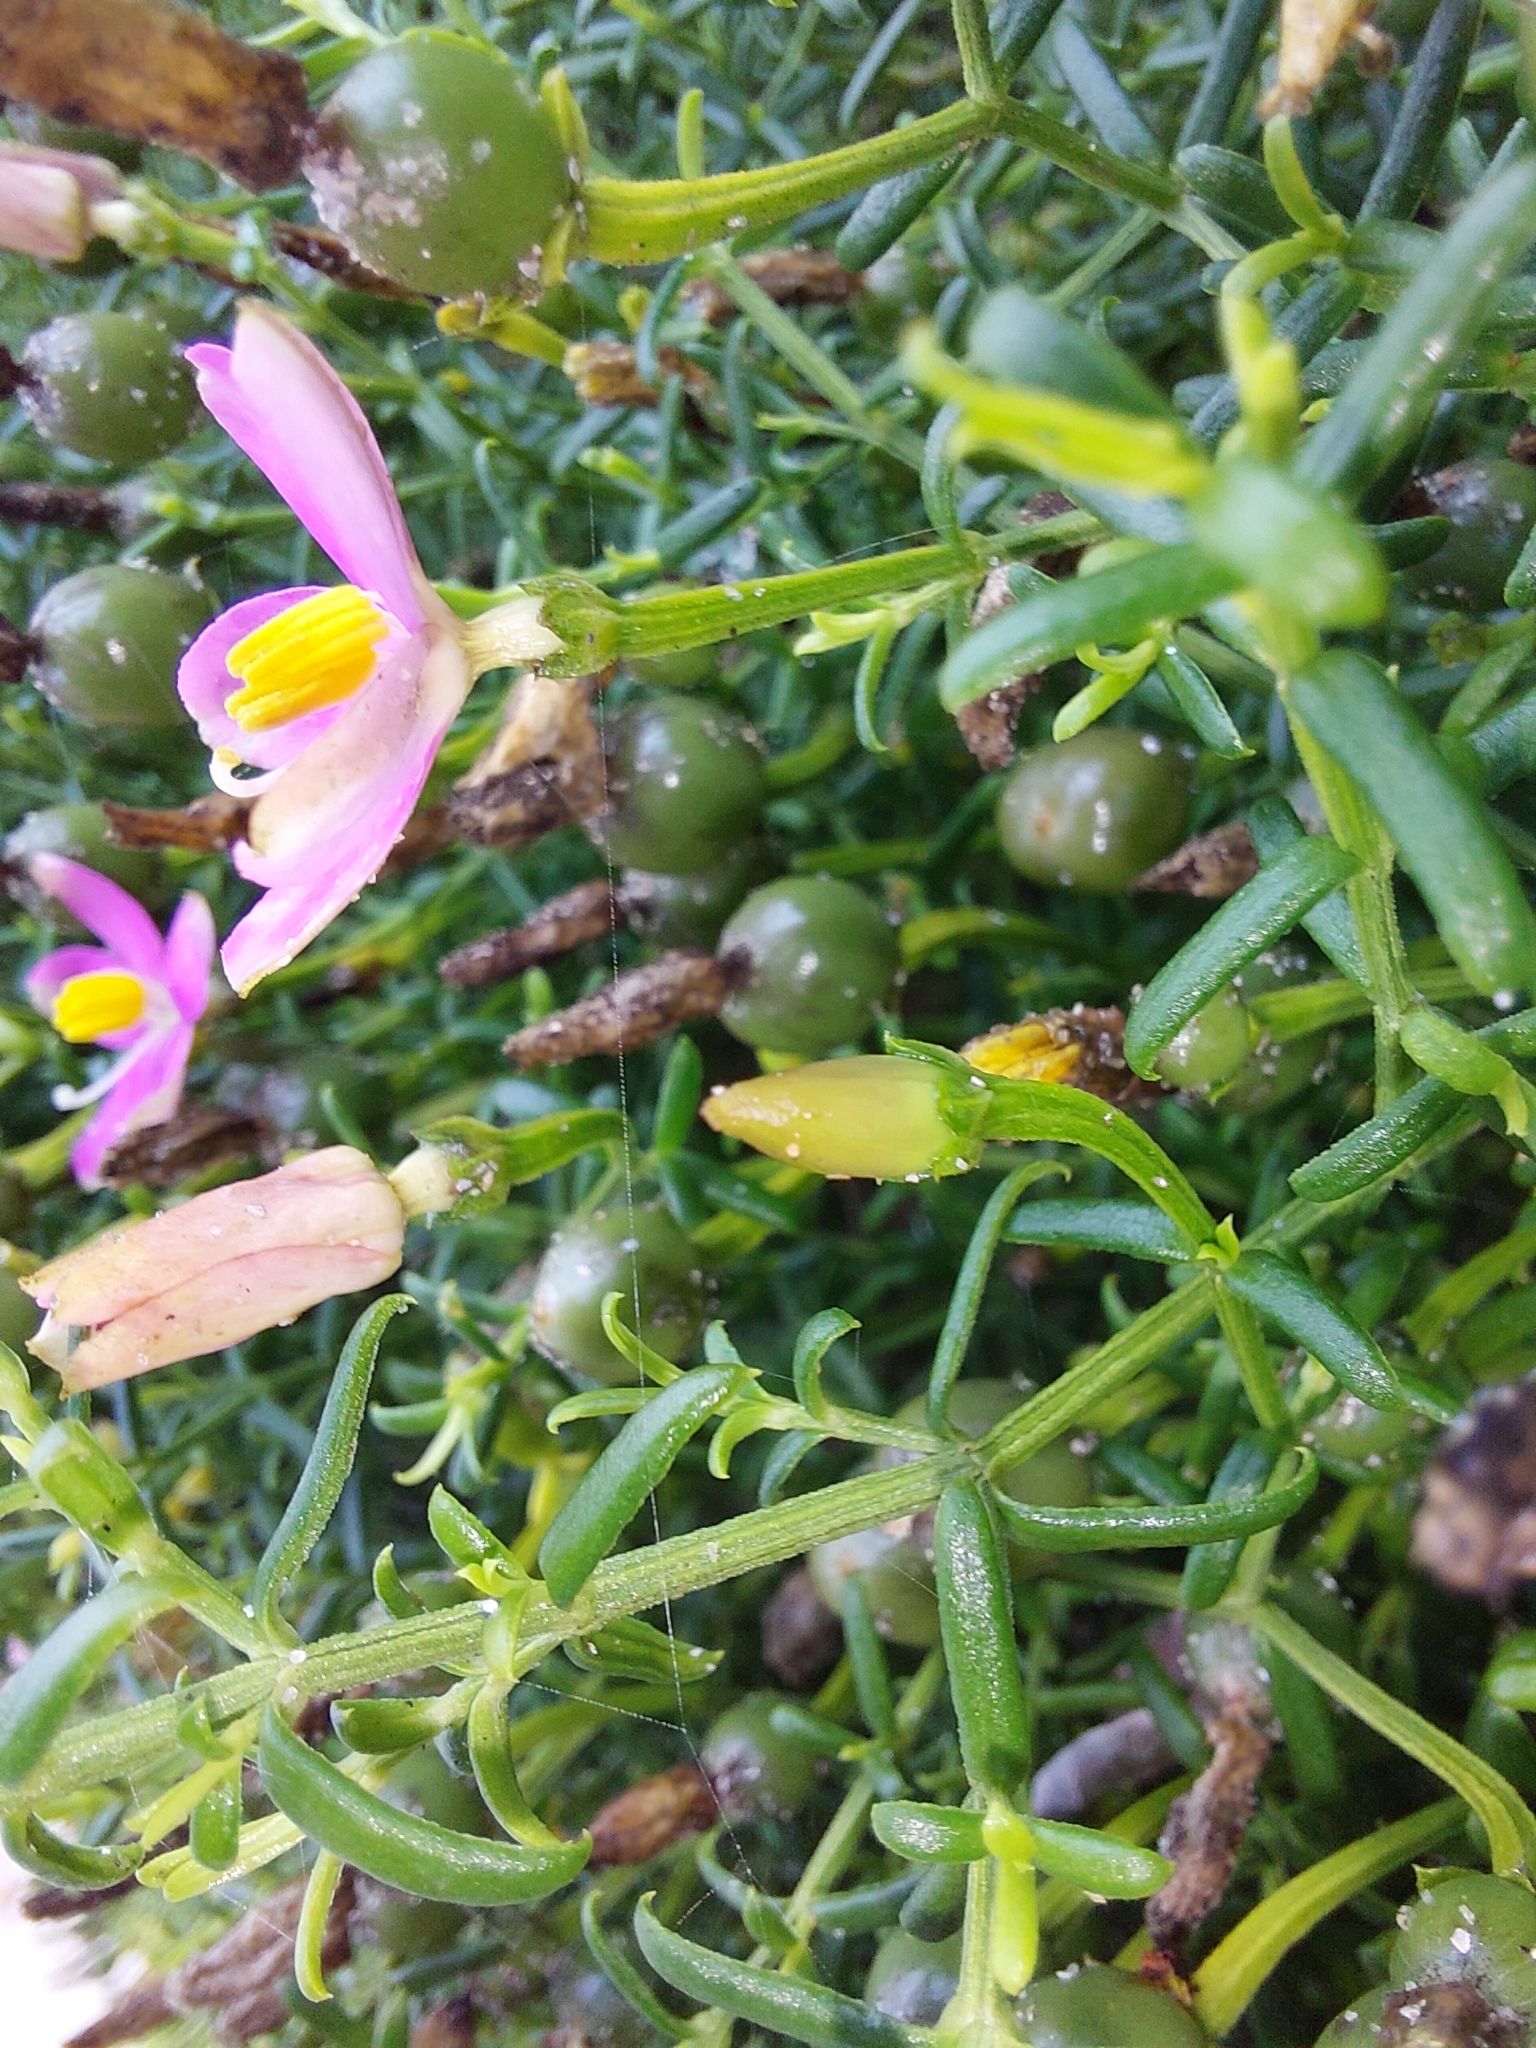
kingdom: Plantae
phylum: Tracheophyta
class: Magnoliopsida
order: Gentianales
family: Gentianaceae
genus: Chironia
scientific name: Chironia baccifera
